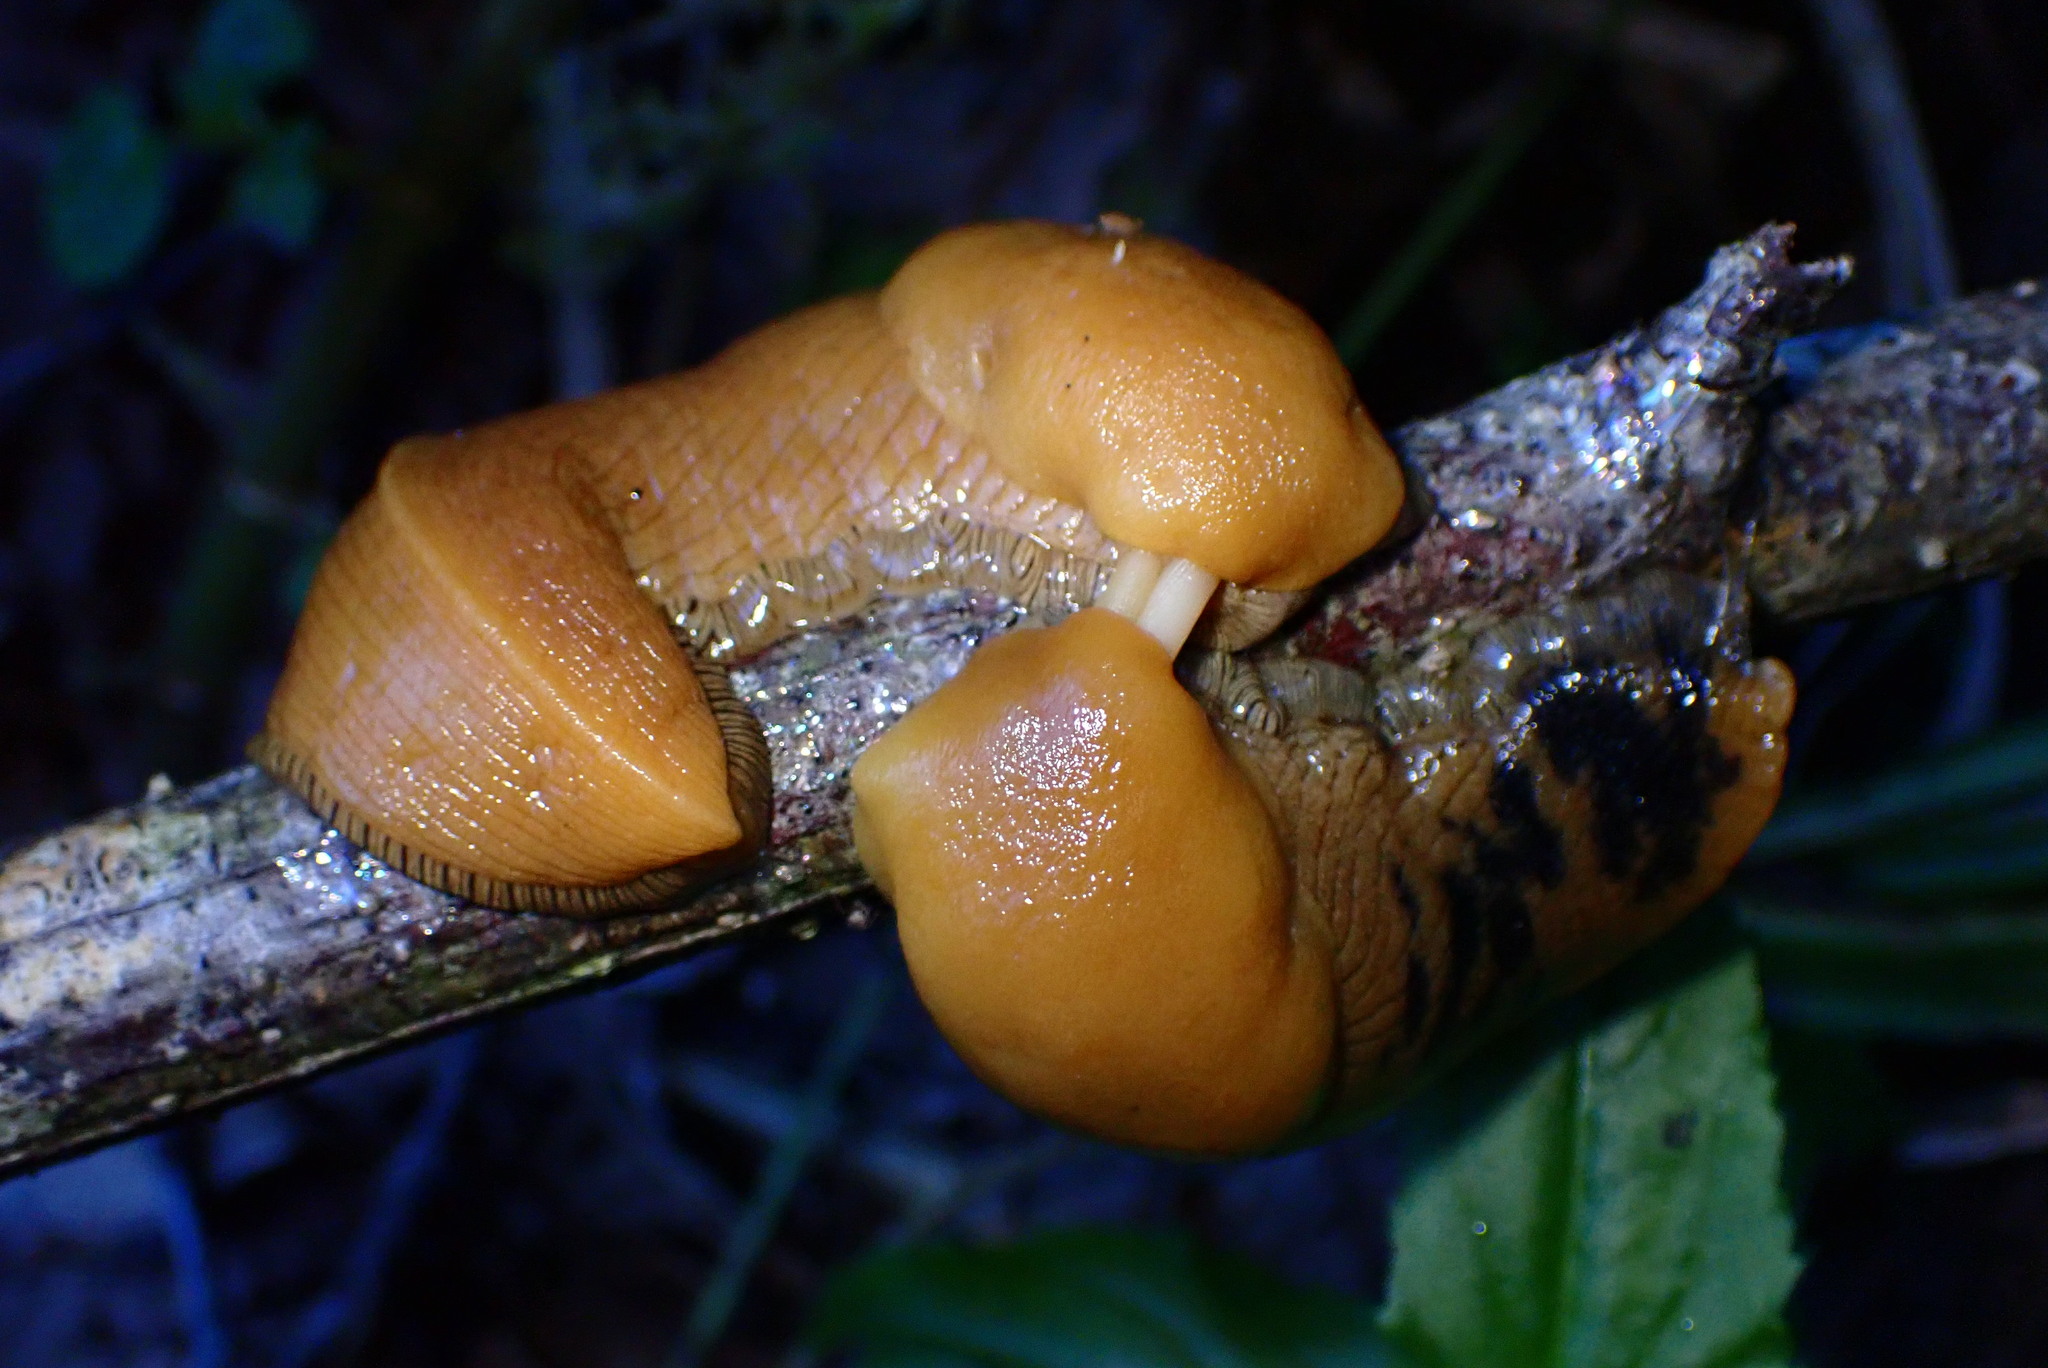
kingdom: Animalia
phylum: Mollusca
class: Gastropoda
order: Stylommatophora
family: Ariolimacidae
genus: Ariolimax
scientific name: Ariolimax buttoni
